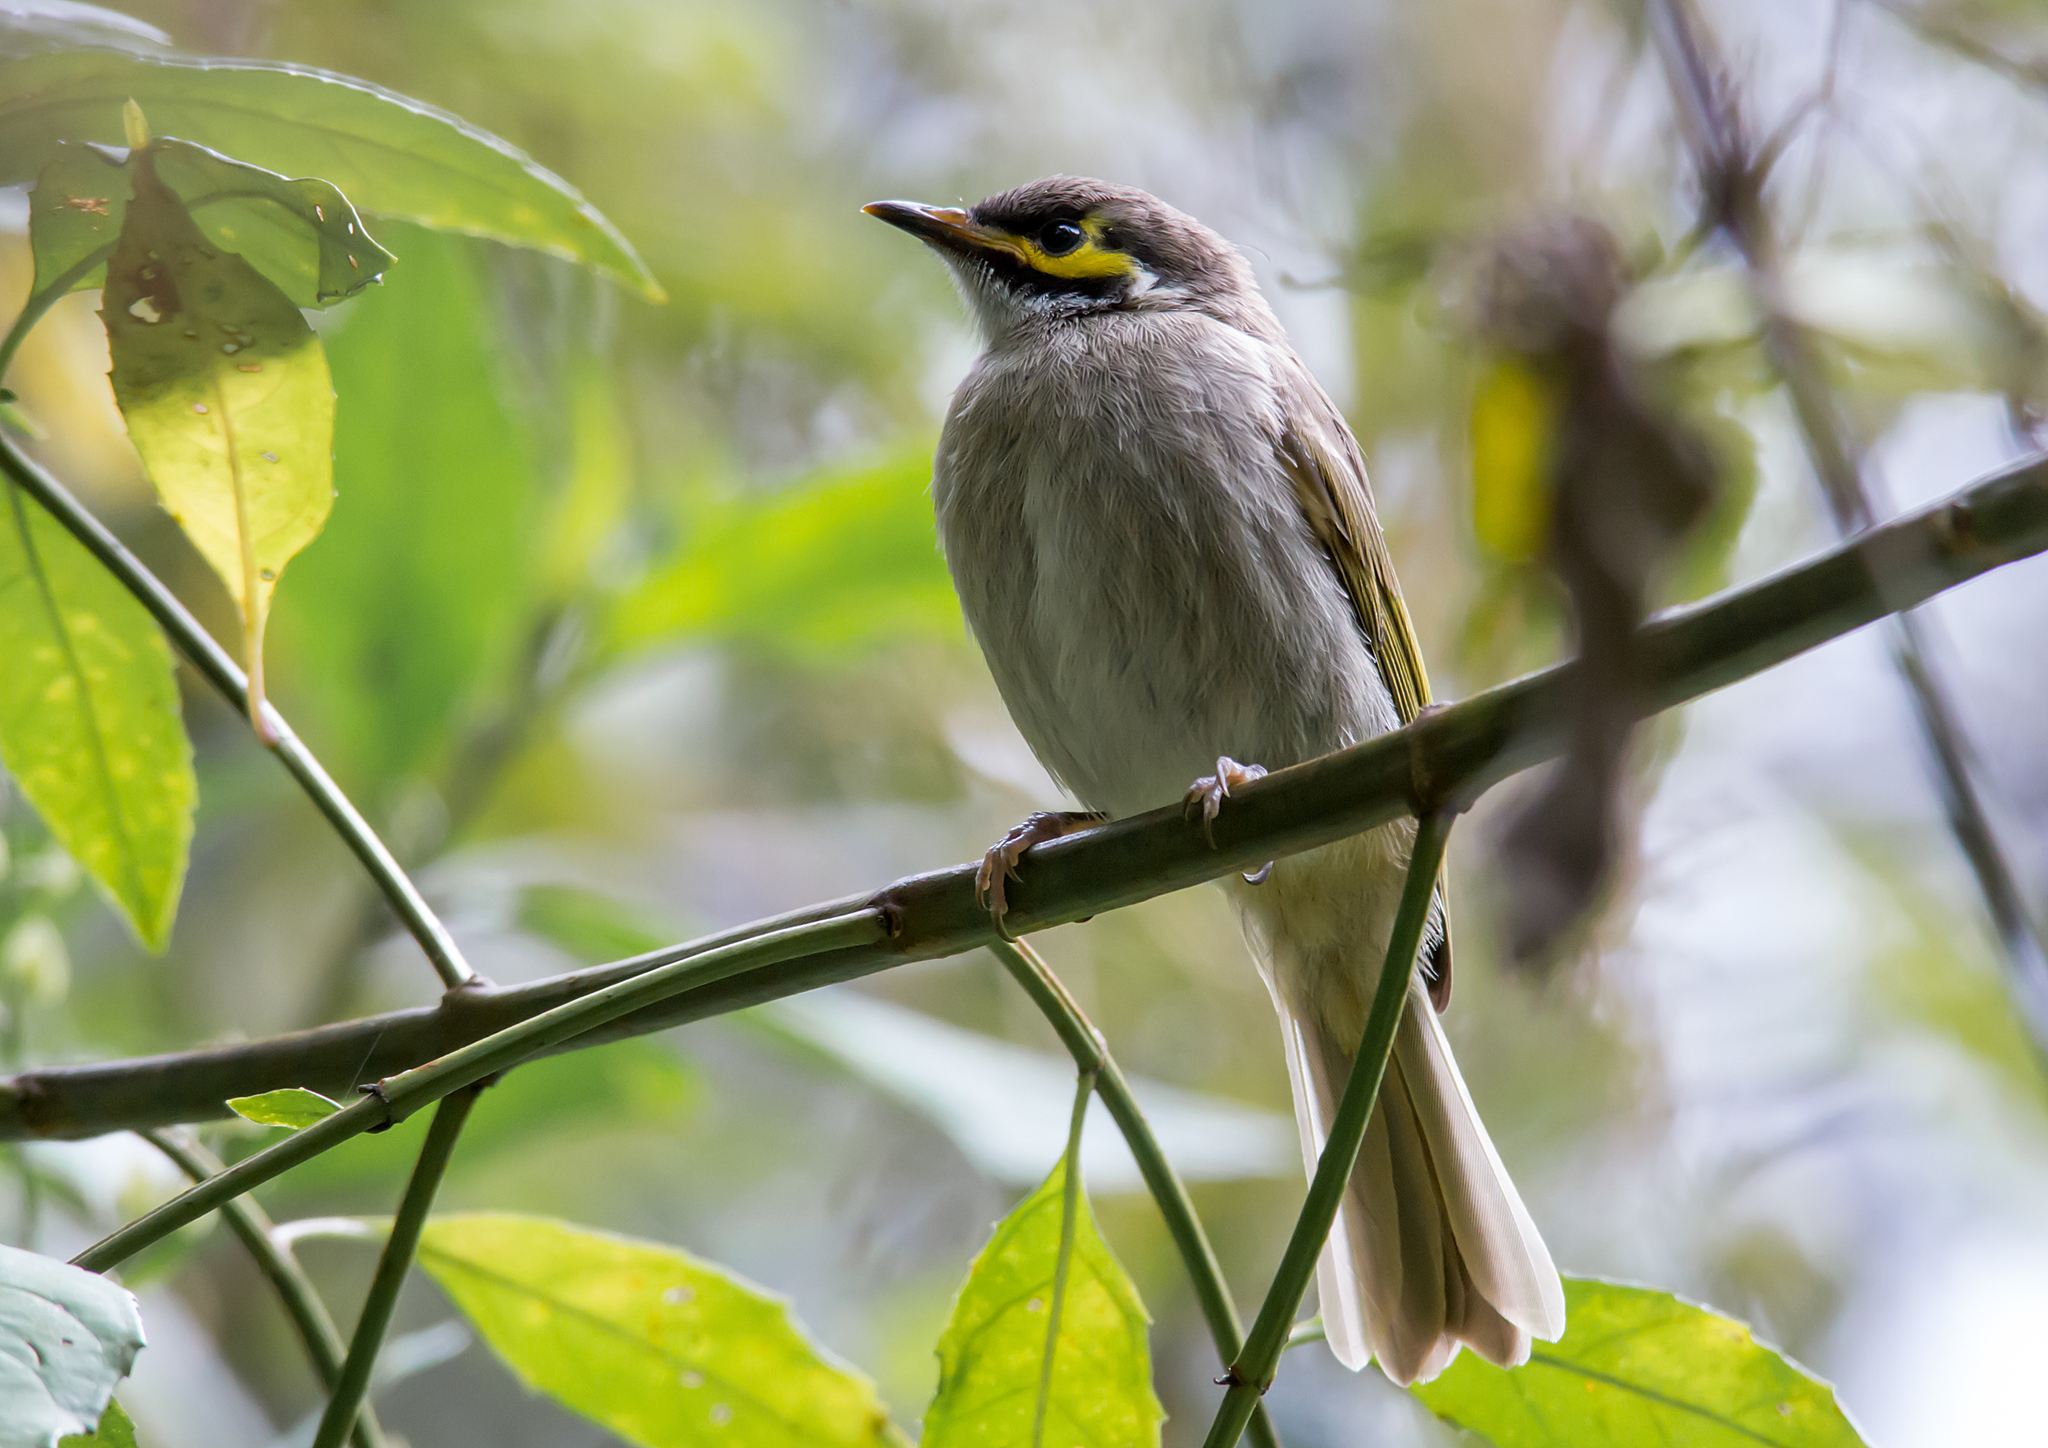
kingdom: Animalia
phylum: Chordata
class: Aves
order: Passeriformes
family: Meliphagidae
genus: Caligavis
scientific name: Caligavis chrysops
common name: Yellow-faced honeyeater
